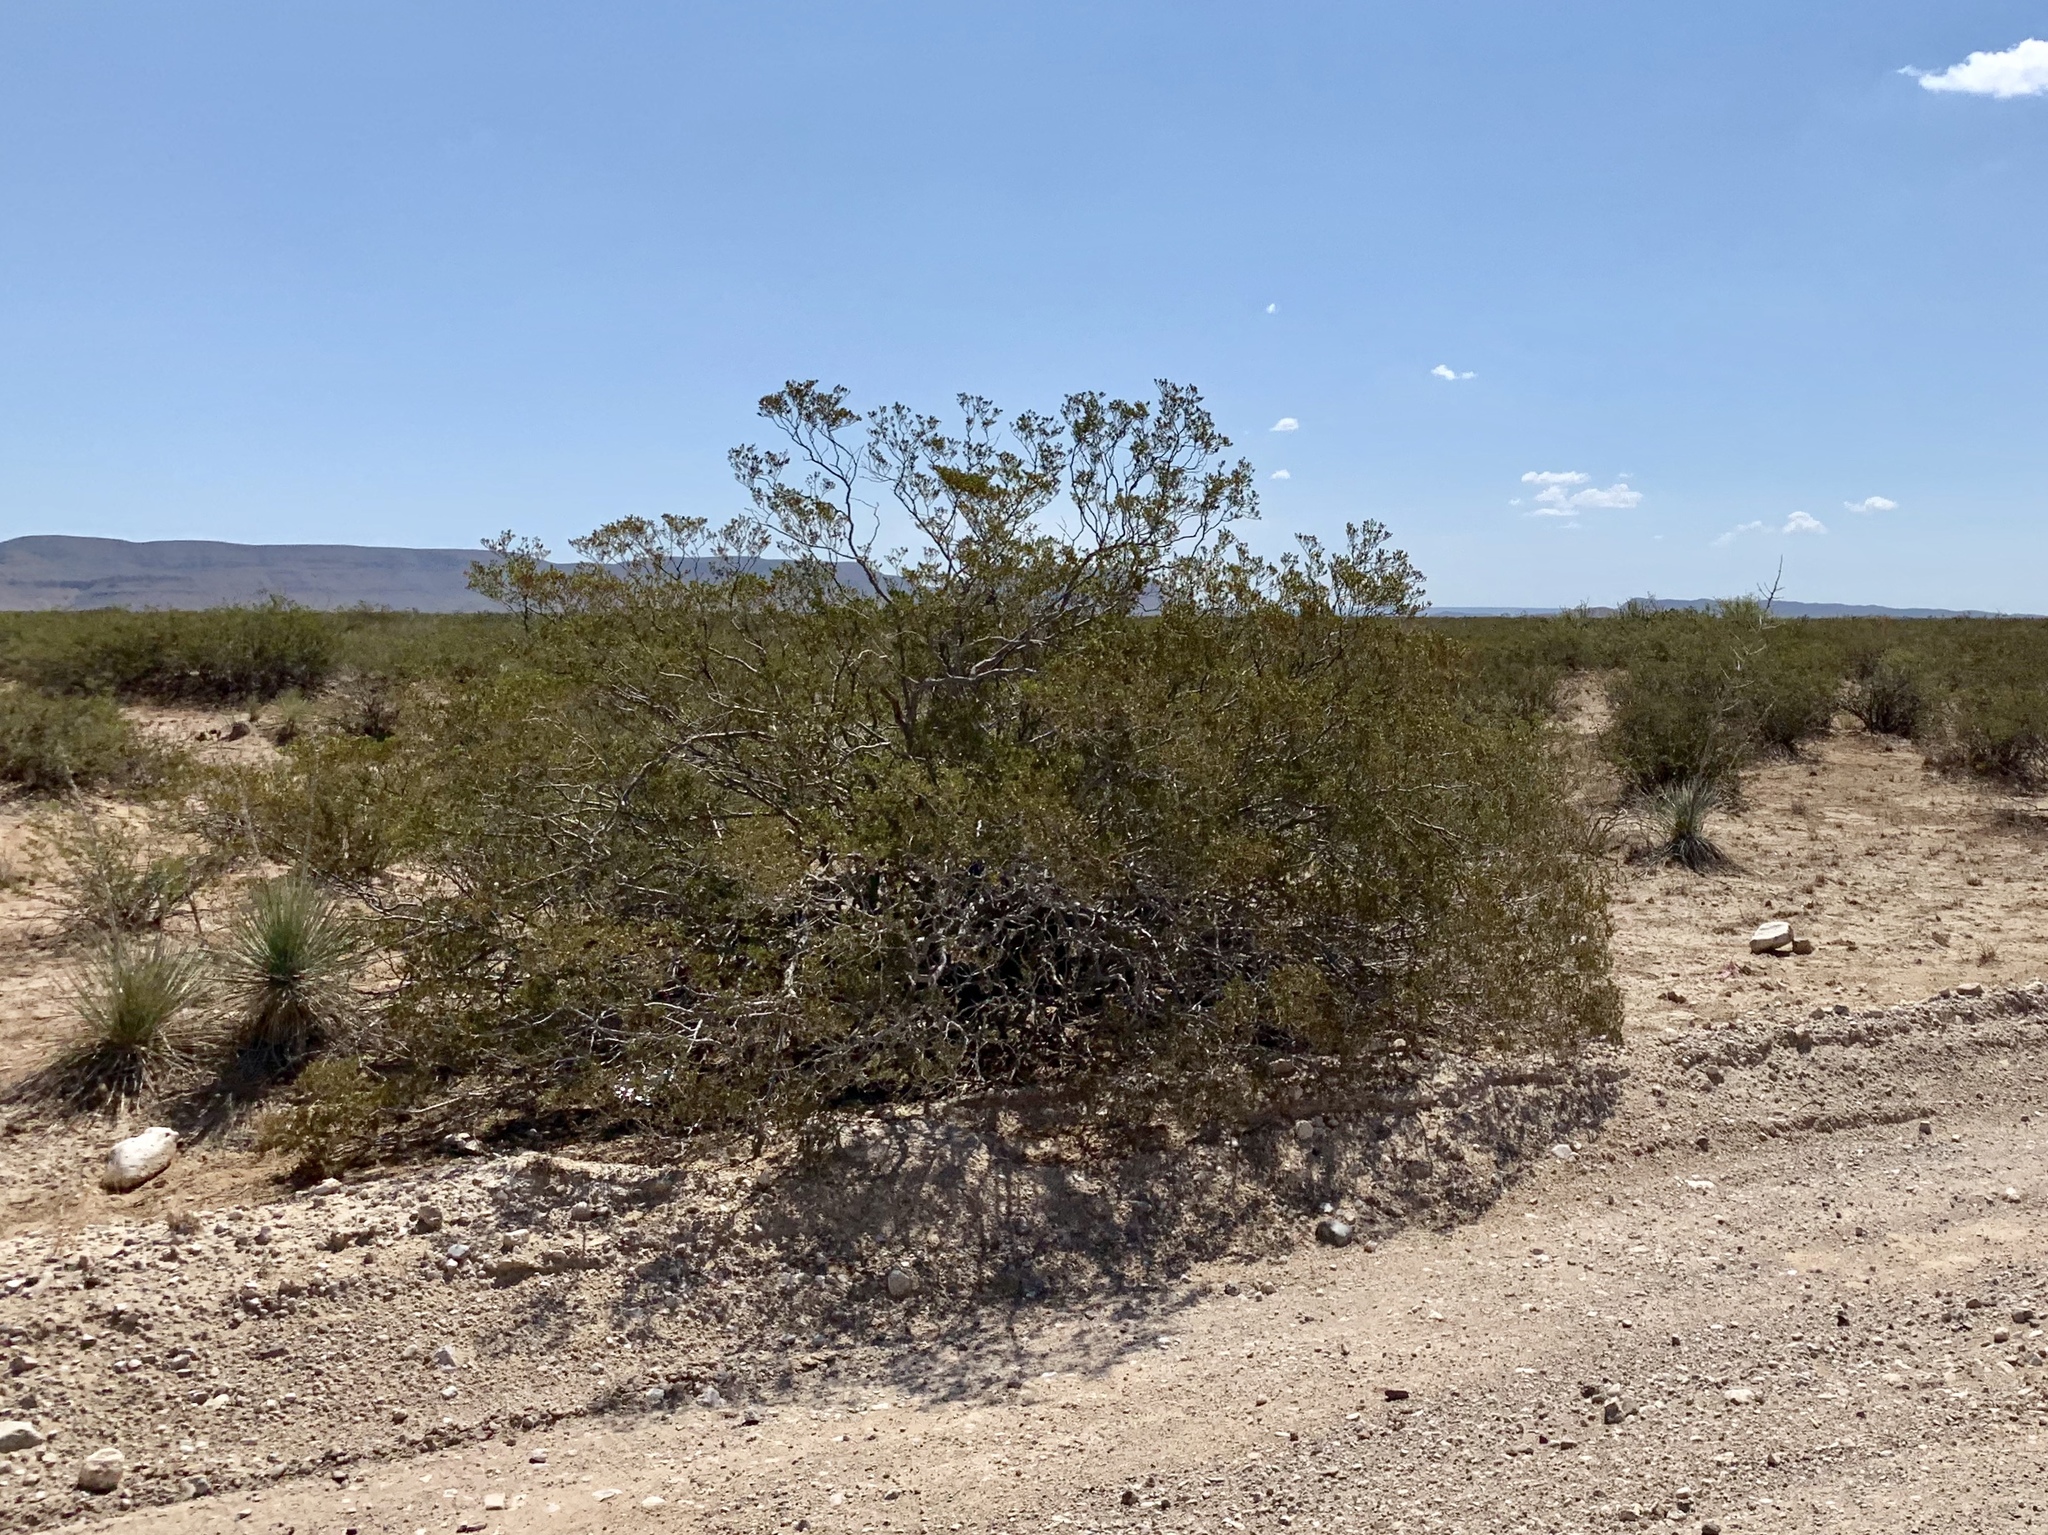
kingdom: Plantae
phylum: Tracheophyta
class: Magnoliopsida
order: Zygophyllales
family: Zygophyllaceae
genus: Larrea
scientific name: Larrea tridentata
